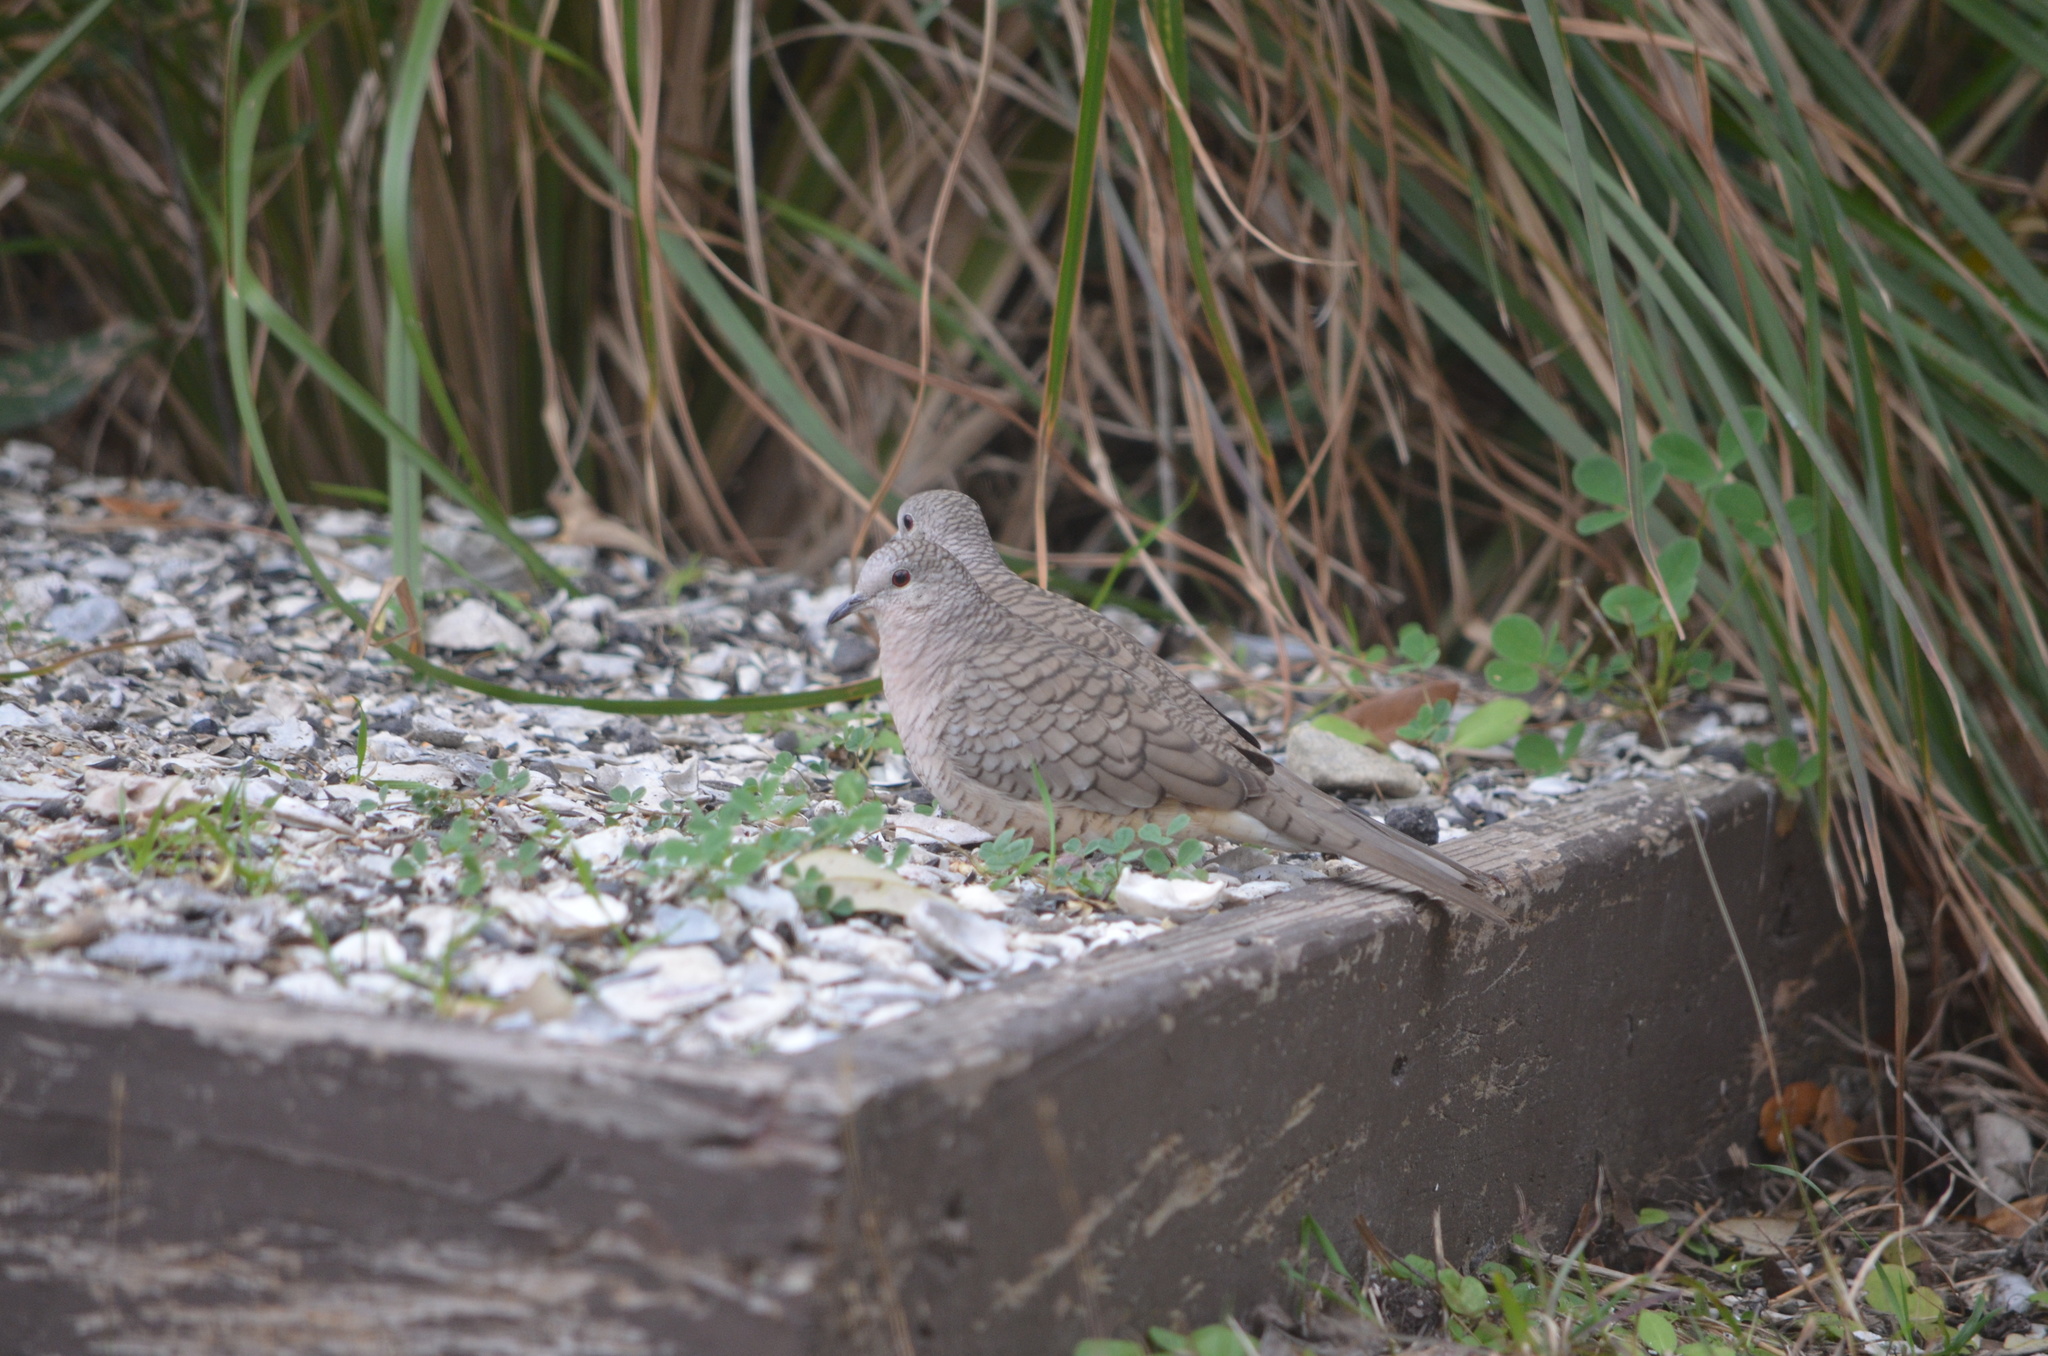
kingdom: Animalia
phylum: Chordata
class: Aves
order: Columbiformes
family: Columbidae
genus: Columbina
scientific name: Columbina inca
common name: Inca dove
